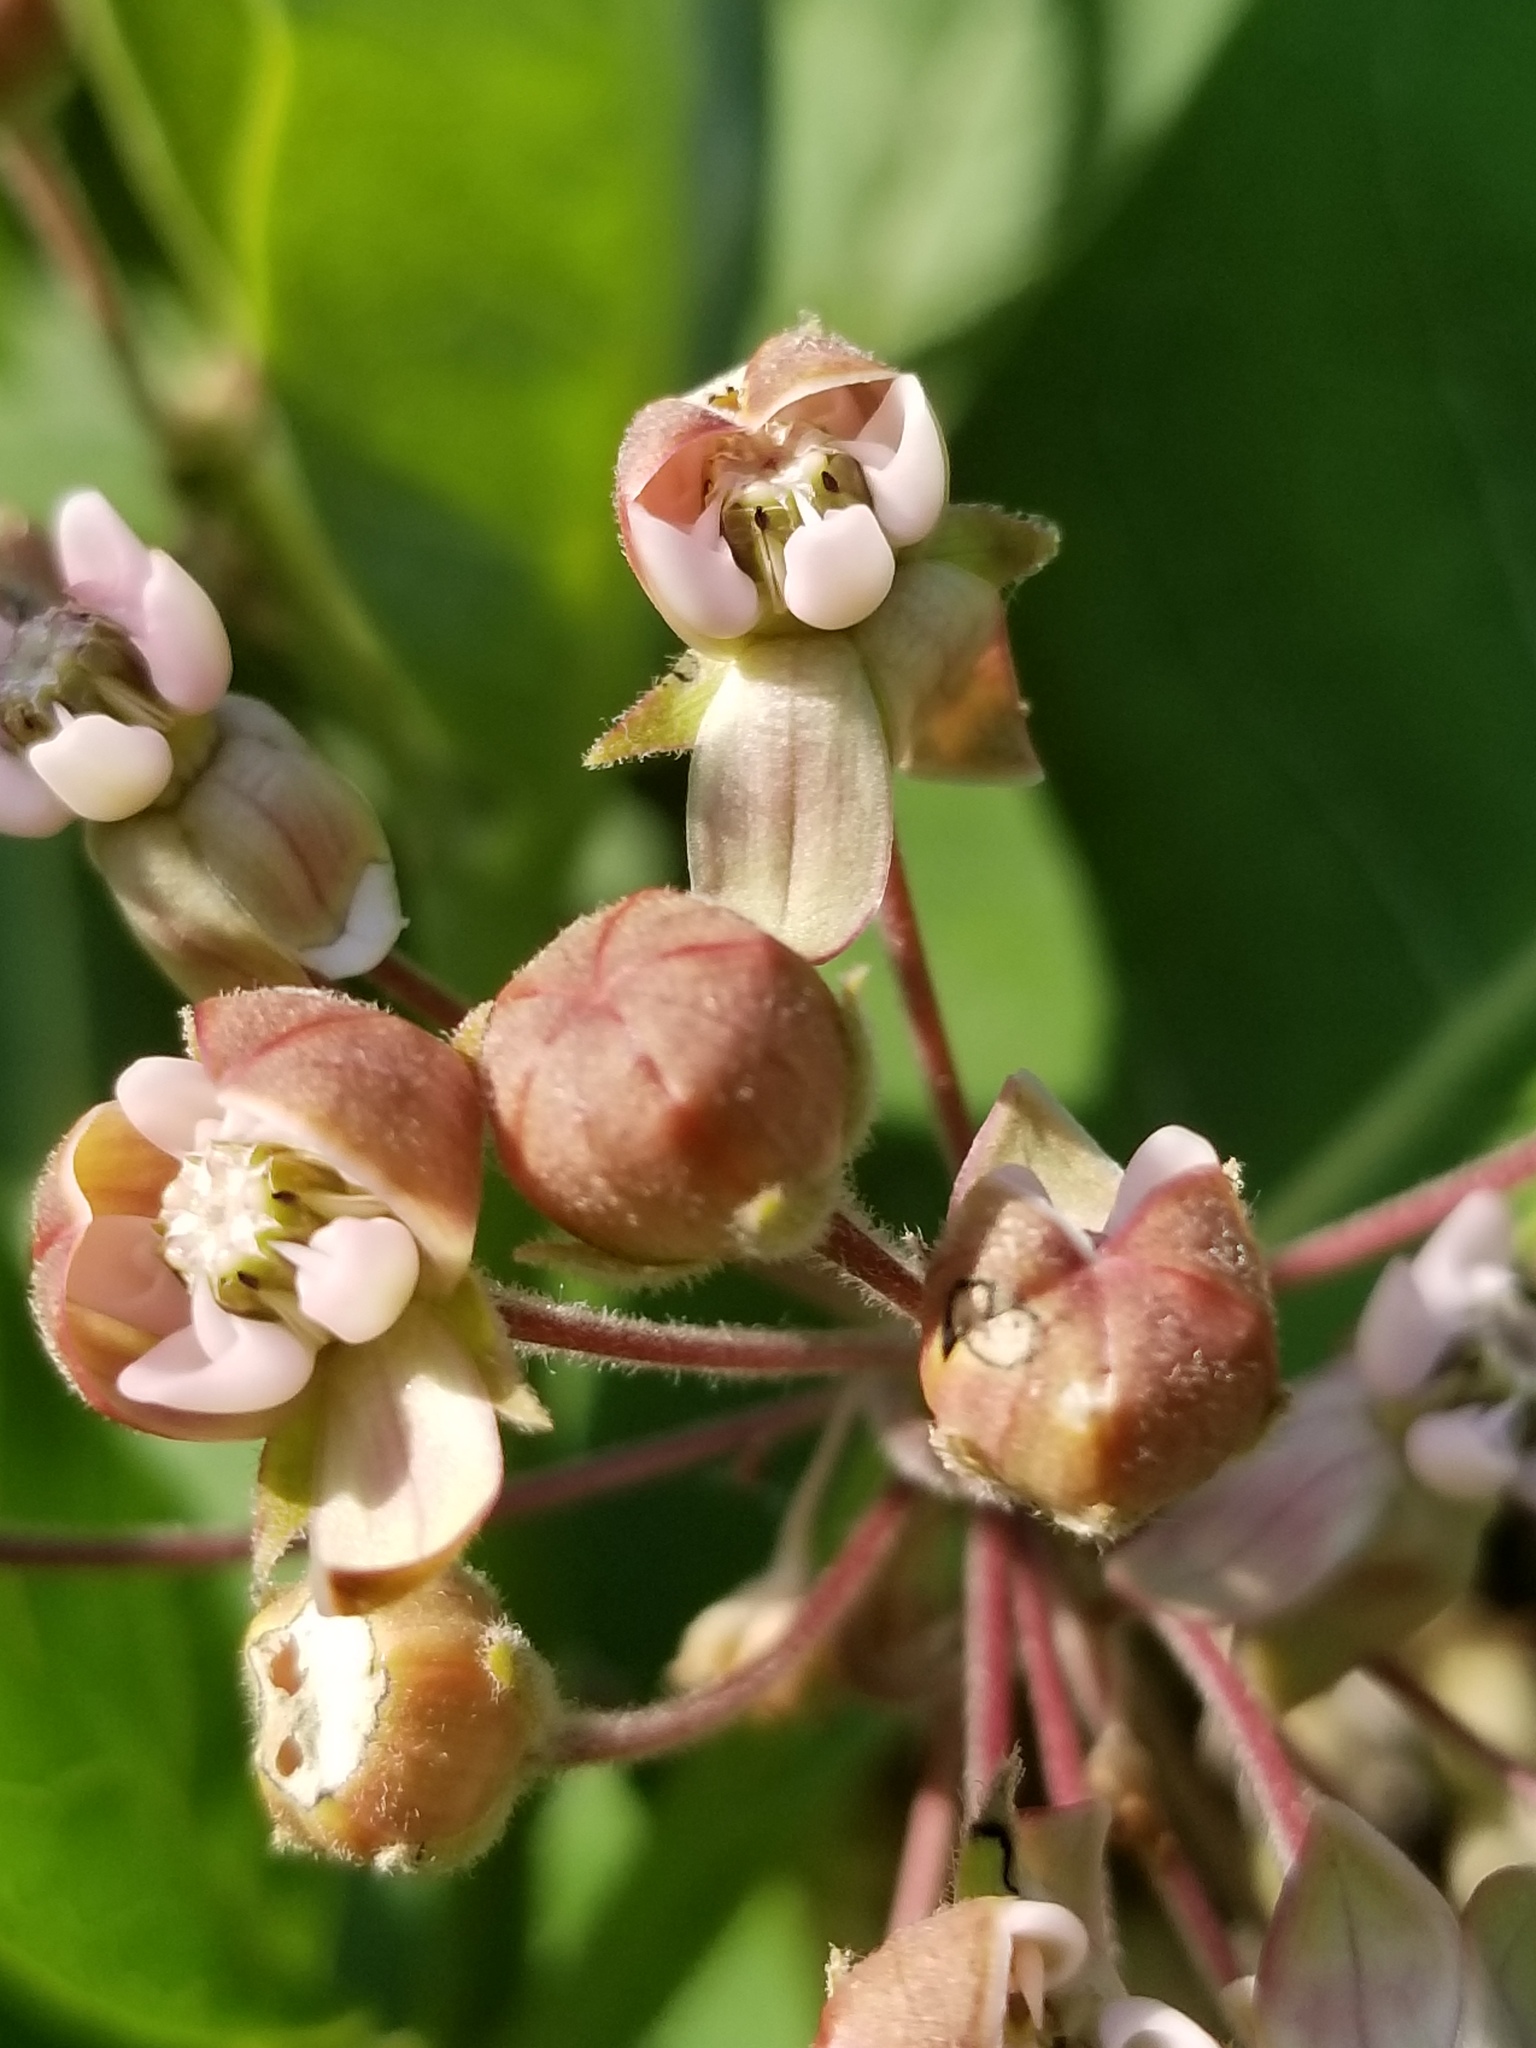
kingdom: Plantae
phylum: Tracheophyta
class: Magnoliopsida
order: Gentianales
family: Apocynaceae
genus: Asclepias
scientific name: Asclepias syriaca
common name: Common milkweed
